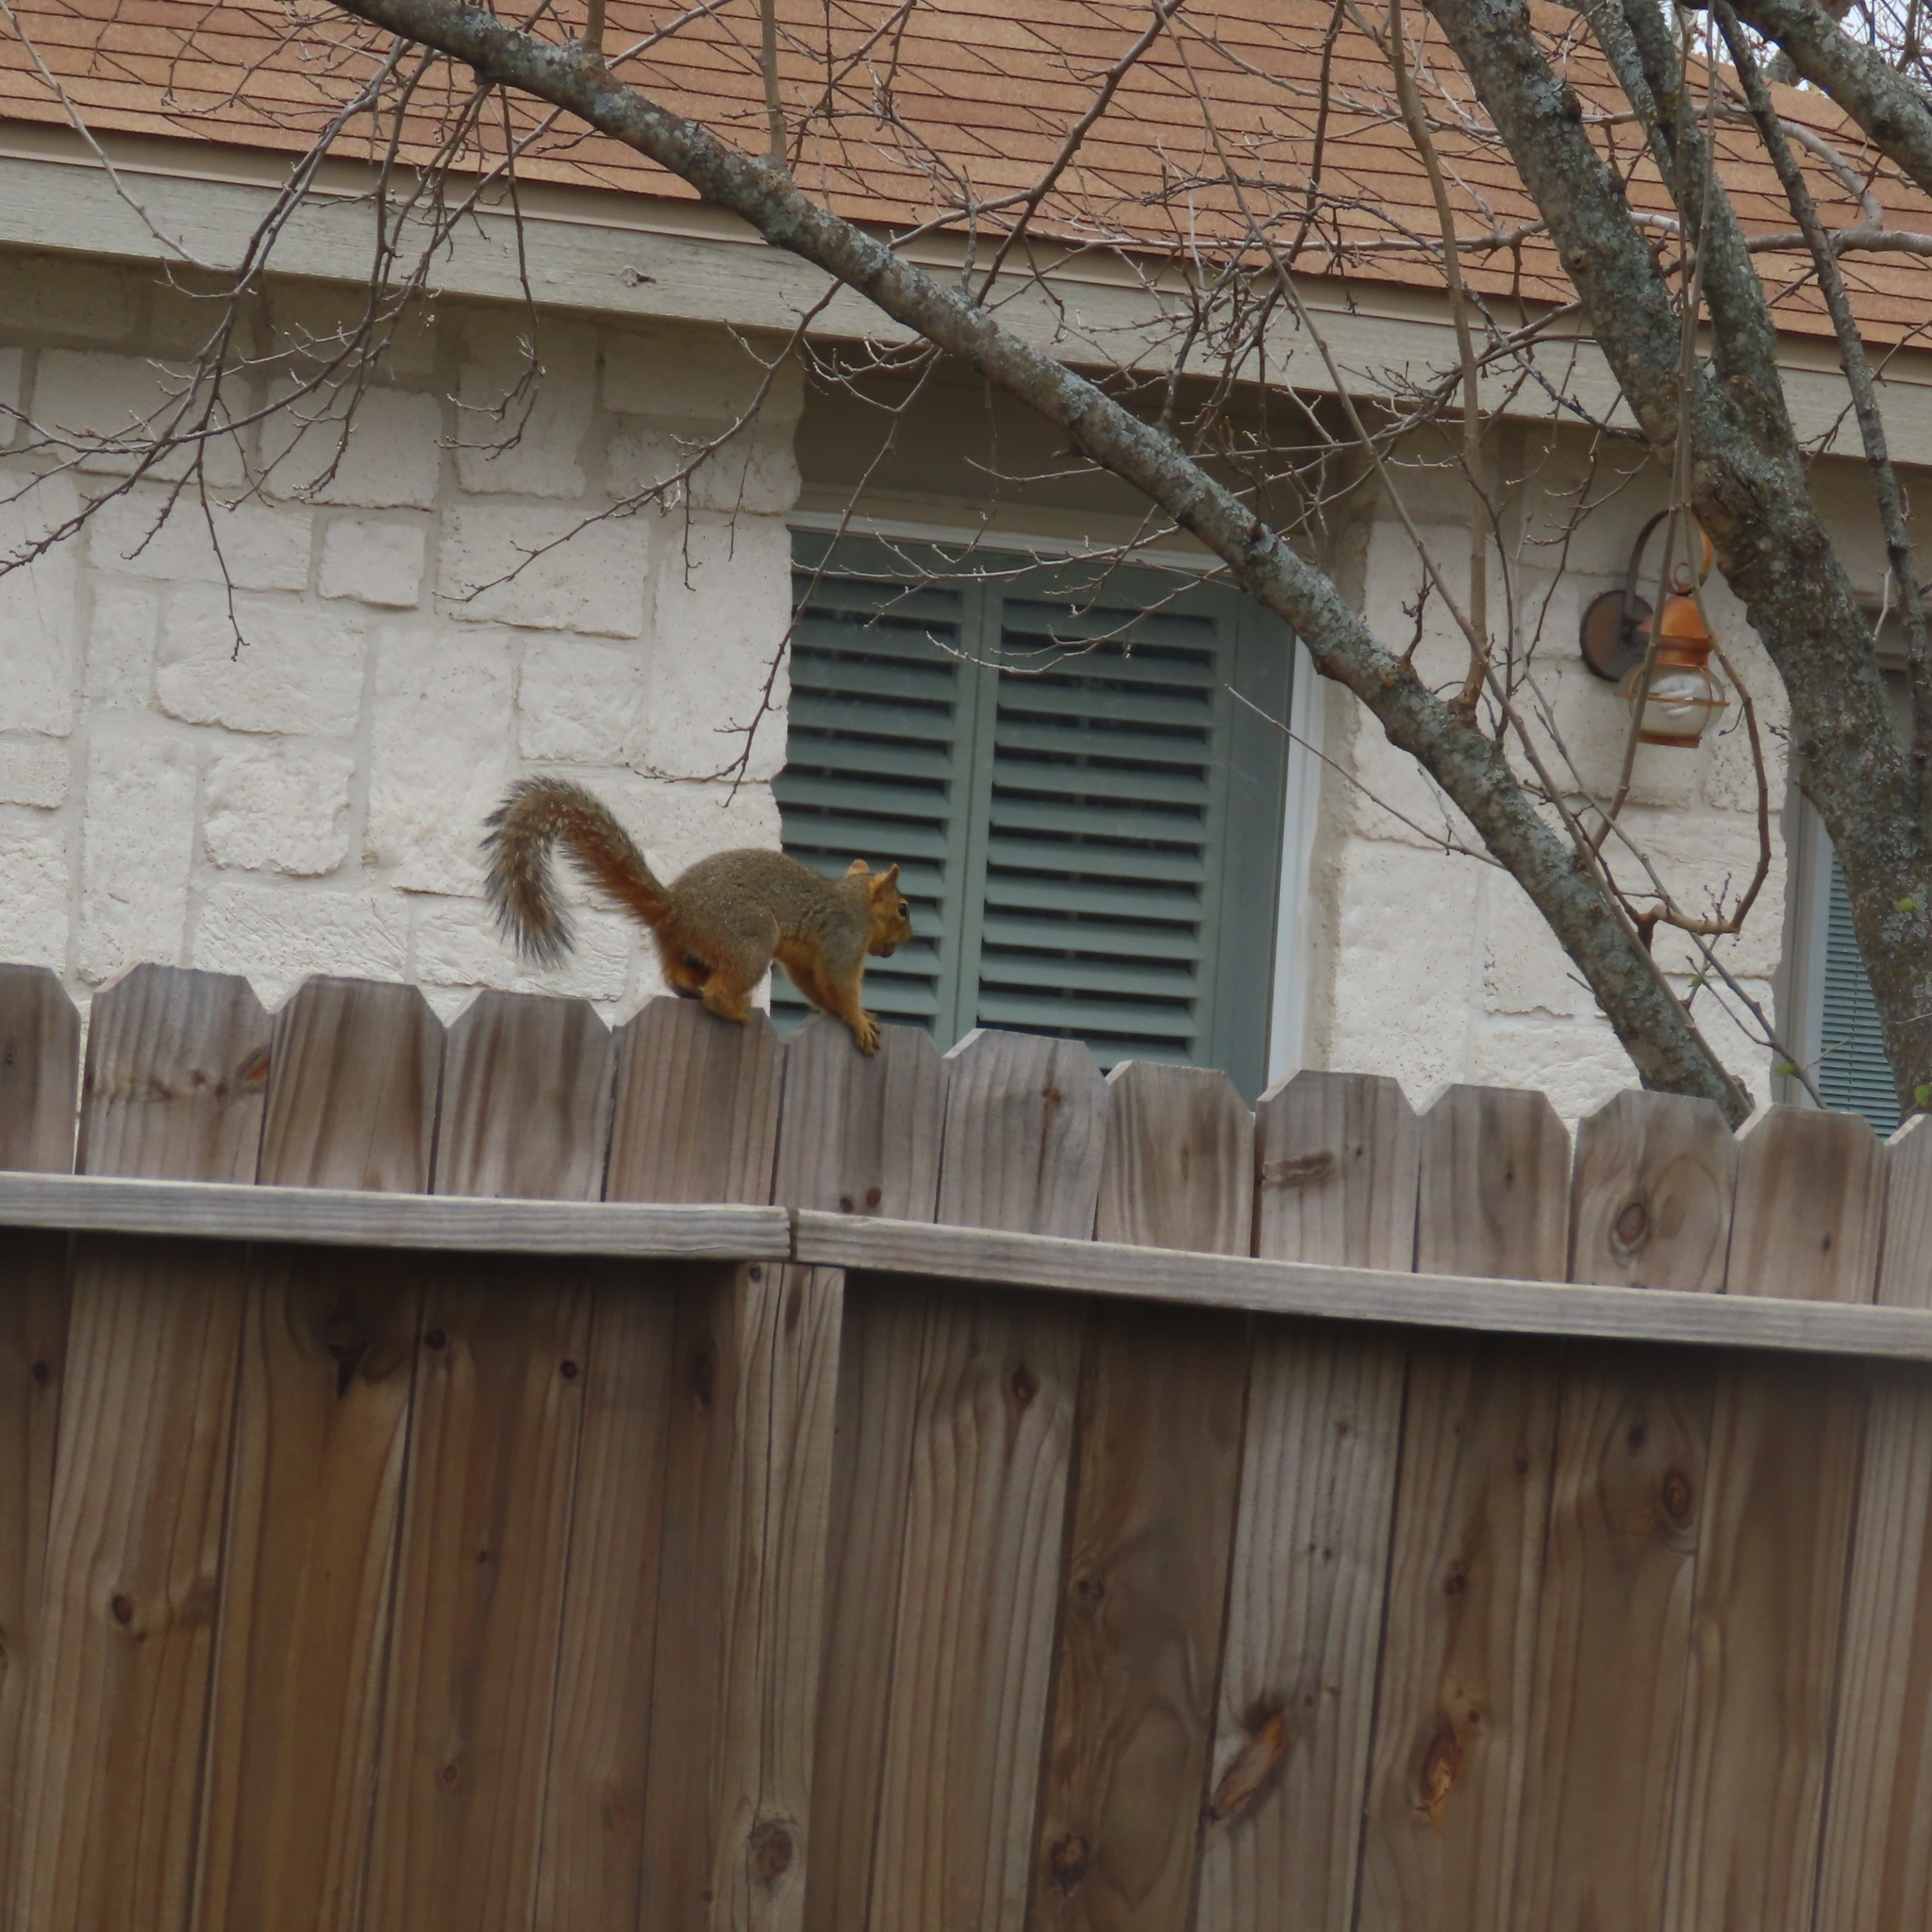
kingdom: Animalia
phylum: Chordata
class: Mammalia
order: Rodentia
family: Sciuridae
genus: Sciurus
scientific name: Sciurus niger
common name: Fox squirrel
